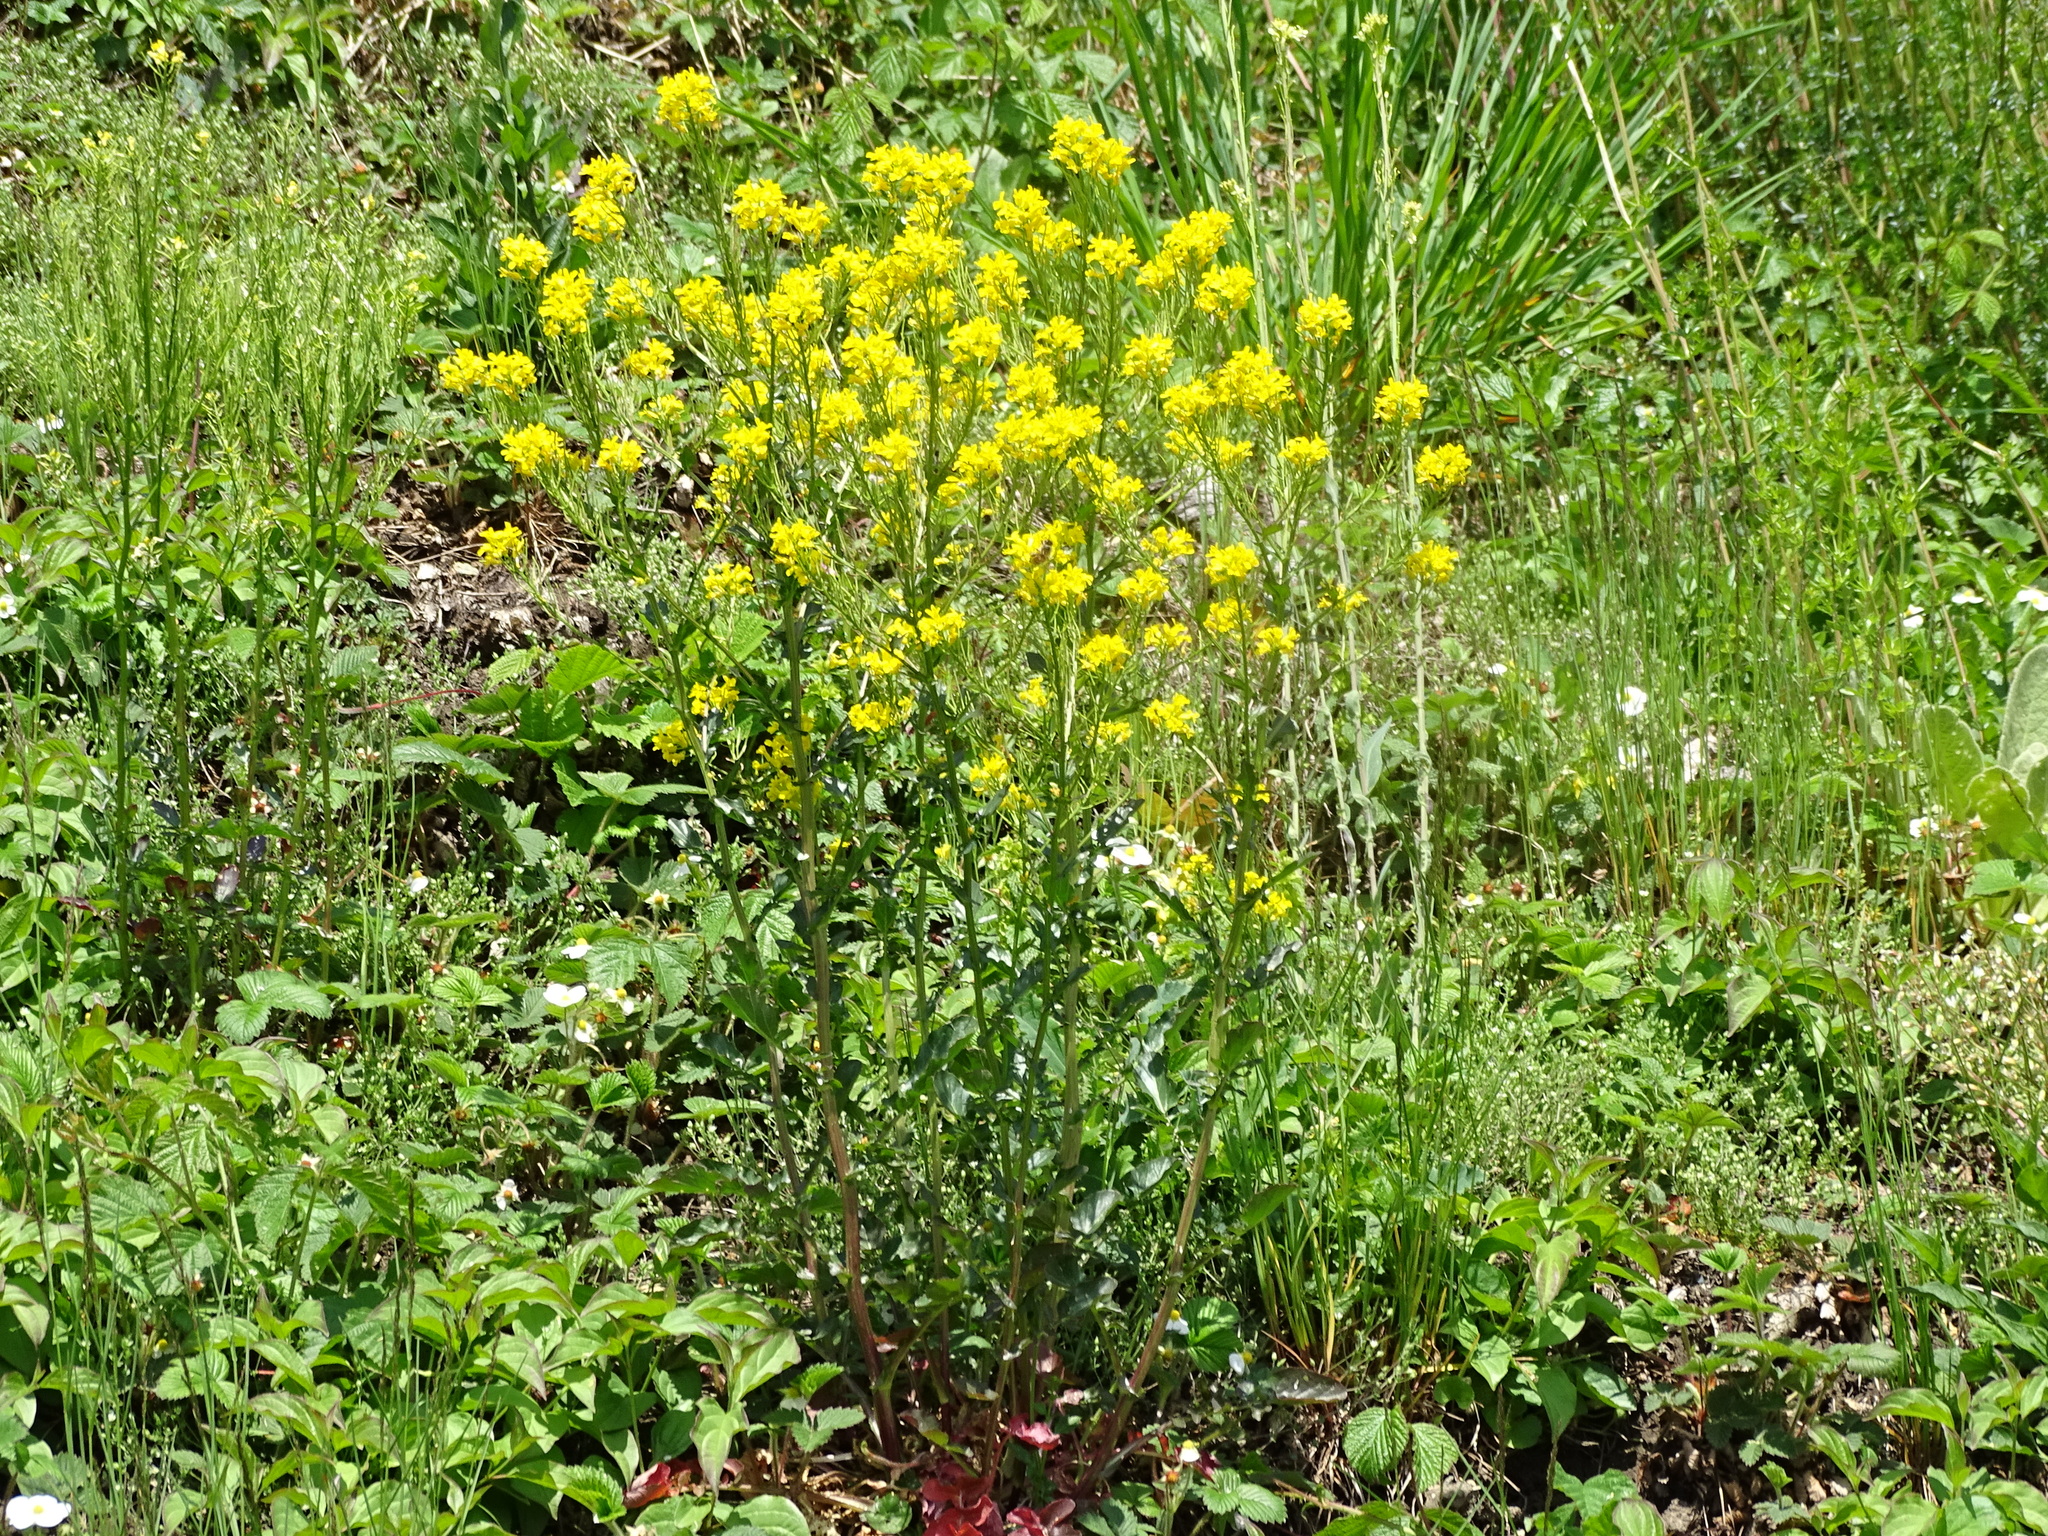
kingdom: Plantae
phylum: Tracheophyta
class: Magnoliopsida
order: Brassicales
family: Brassicaceae
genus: Barbarea
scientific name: Barbarea vulgaris
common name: Cressy-greens
